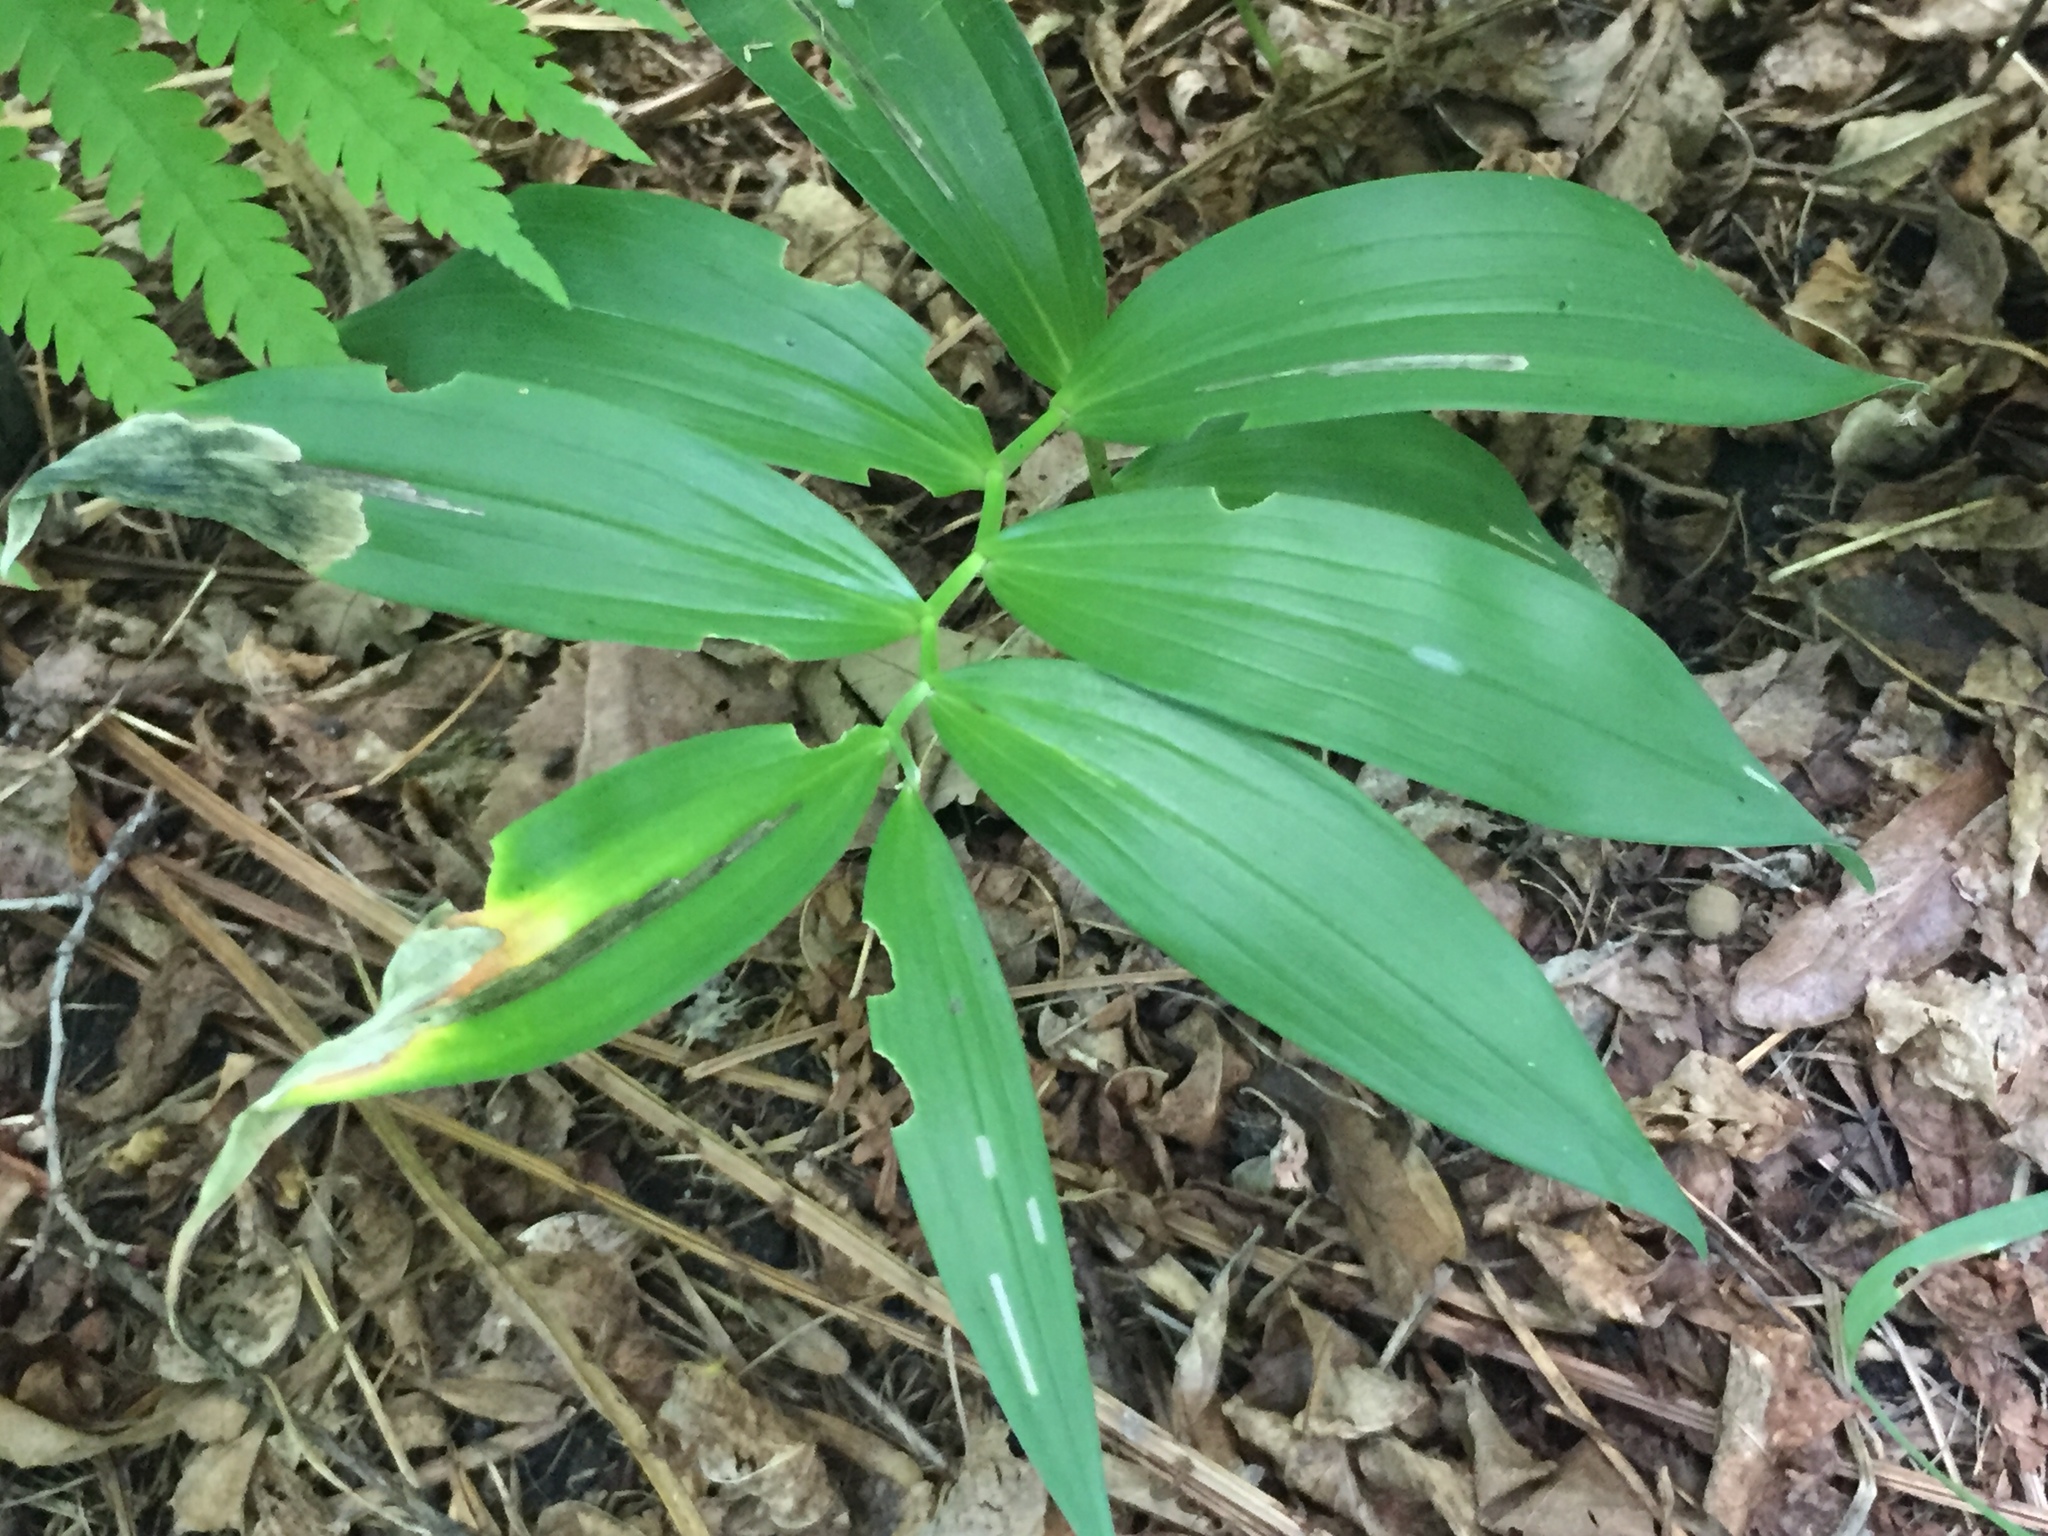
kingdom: Plantae
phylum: Tracheophyta
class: Liliopsida
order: Asparagales
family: Asparagaceae
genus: Maianthemum
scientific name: Maianthemum stellatum
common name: Little false solomon's seal
